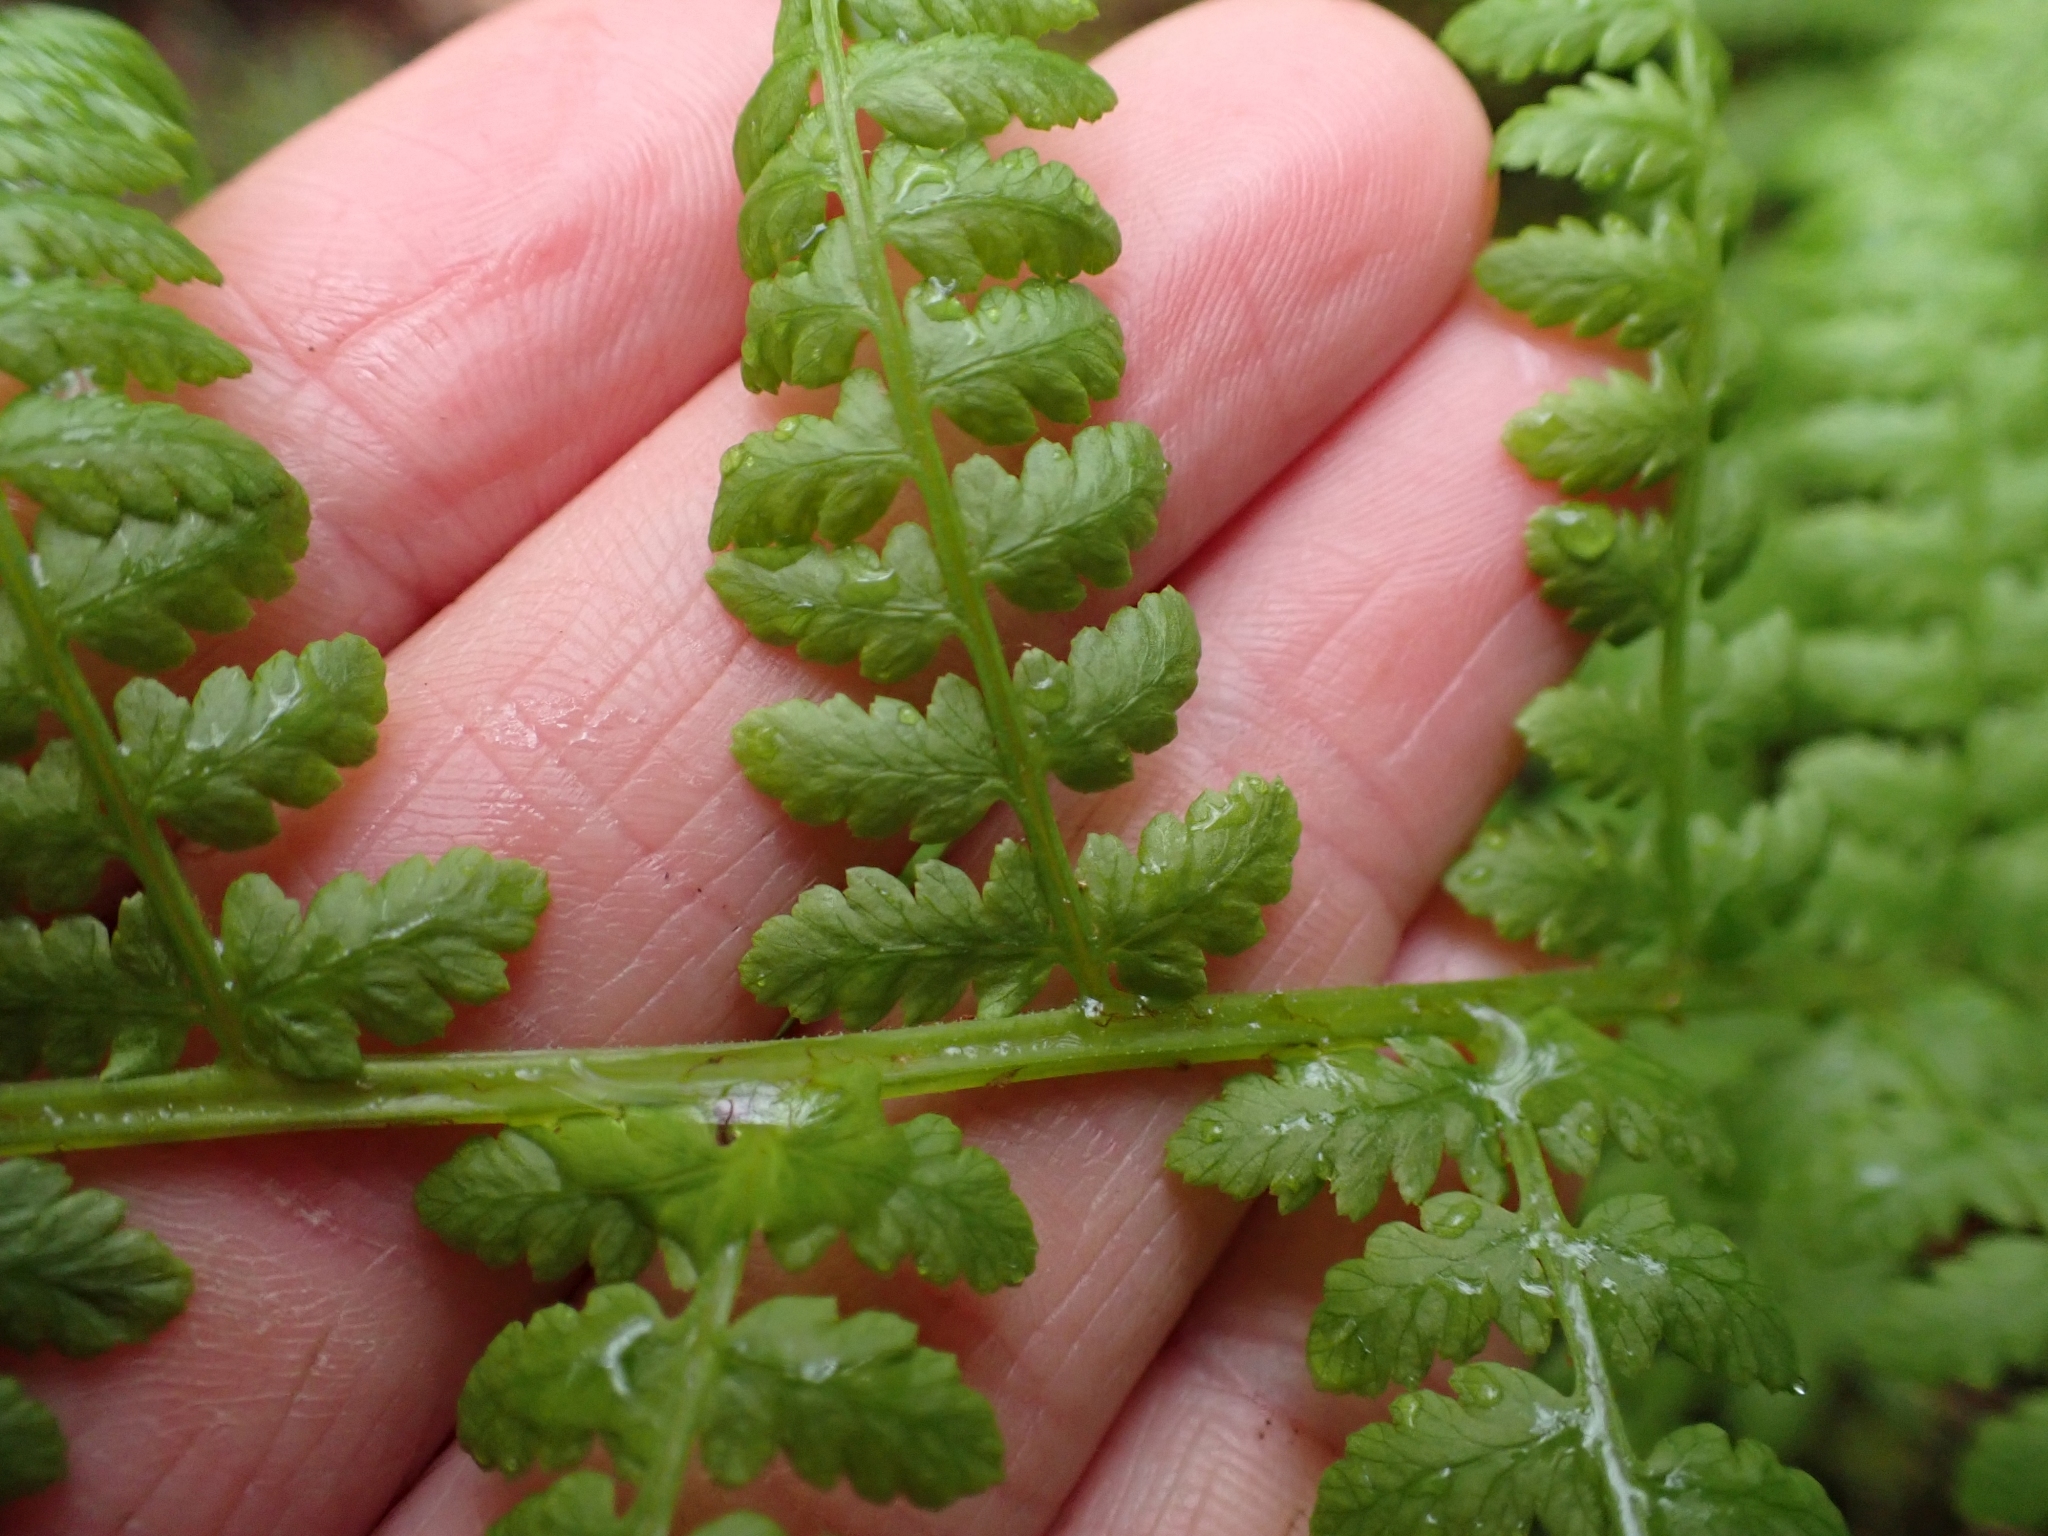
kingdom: Plantae
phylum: Tracheophyta
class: Polypodiopsida
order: Polypodiales
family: Athyriaceae
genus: Athyrium
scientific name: Athyrium filix-femina
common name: Lady fern
